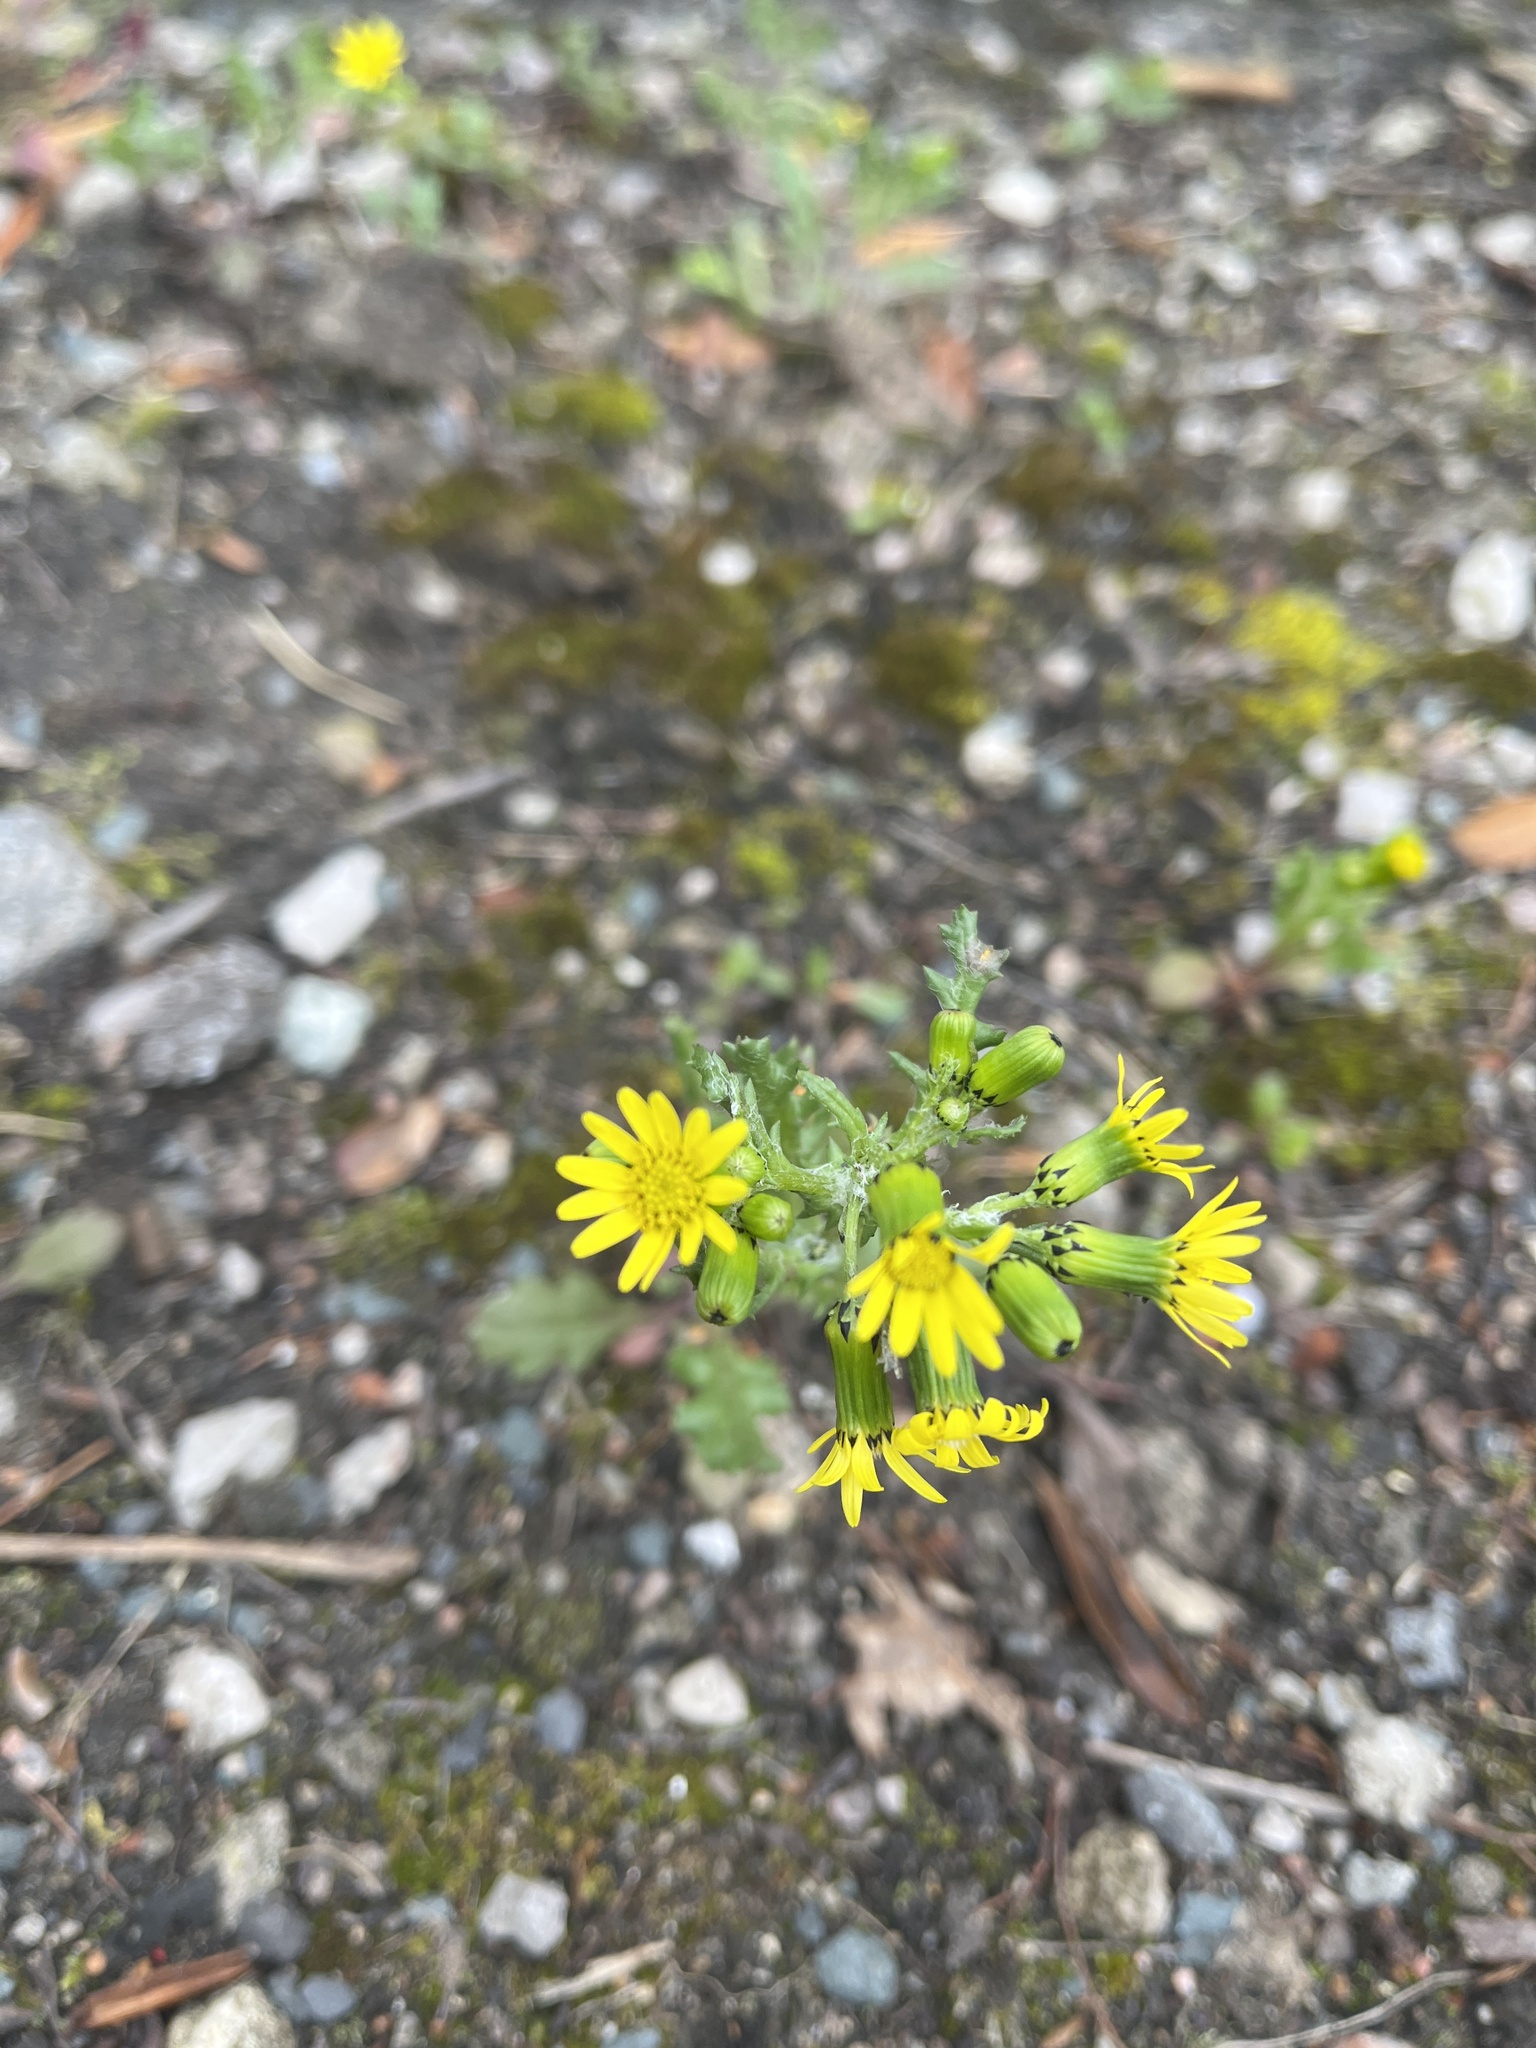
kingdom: Plantae
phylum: Tracheophyta
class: Magnoliopsida
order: Asterales
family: Asteraceae
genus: Senecio
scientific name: Senecio vulgaris
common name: Old-man-in-the-spring
